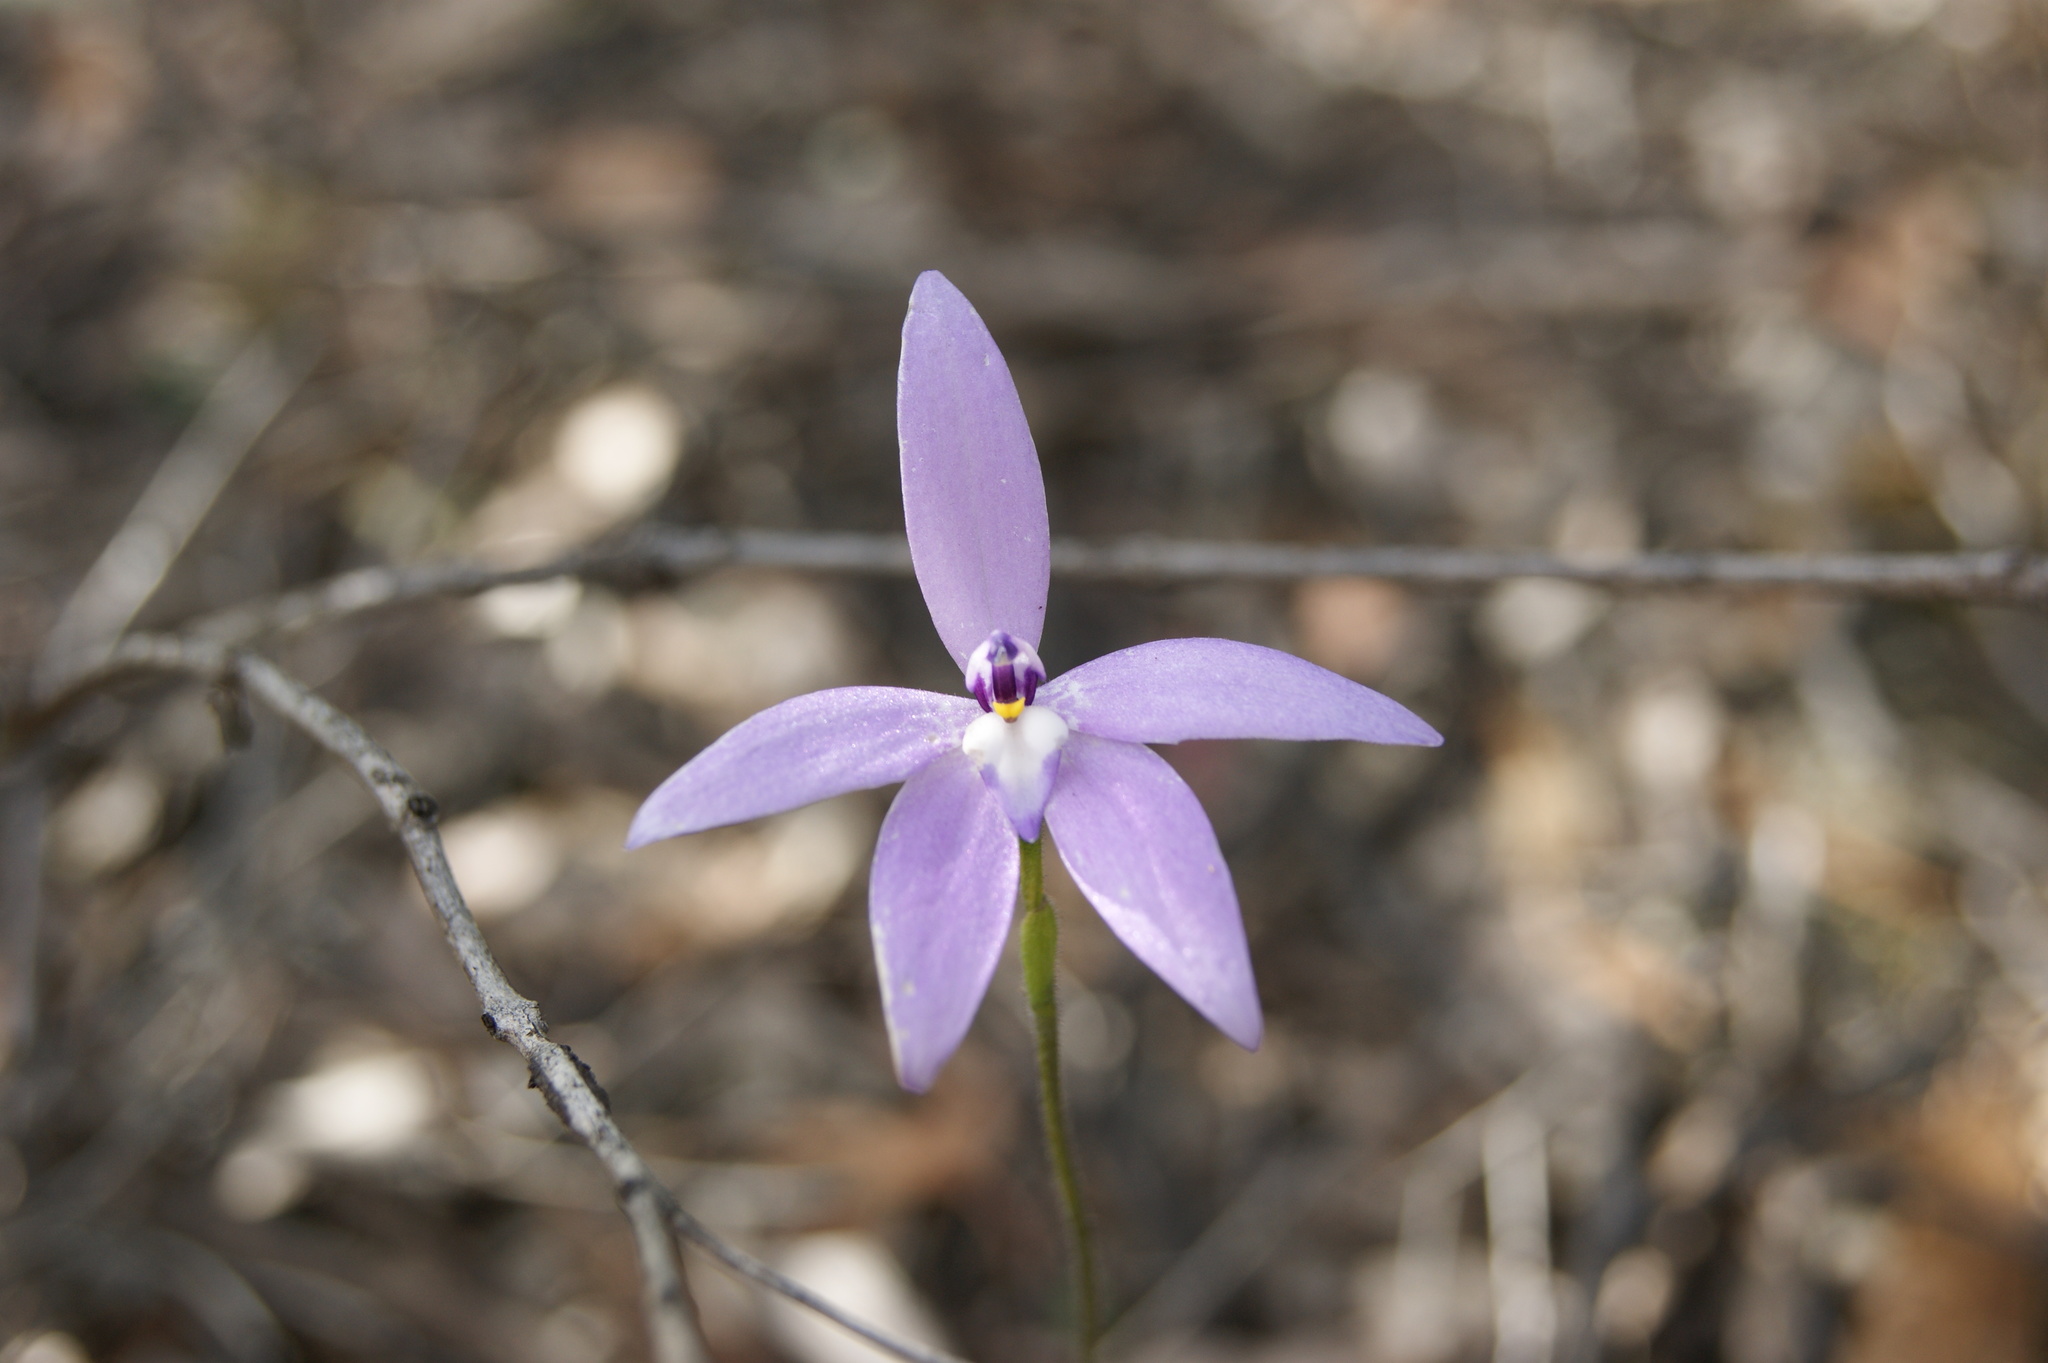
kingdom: Plantae
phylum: Tracheophyta
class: Liliopsida
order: Asparagales
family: Orchidaceae
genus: Caladenia
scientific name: Caladenia major
